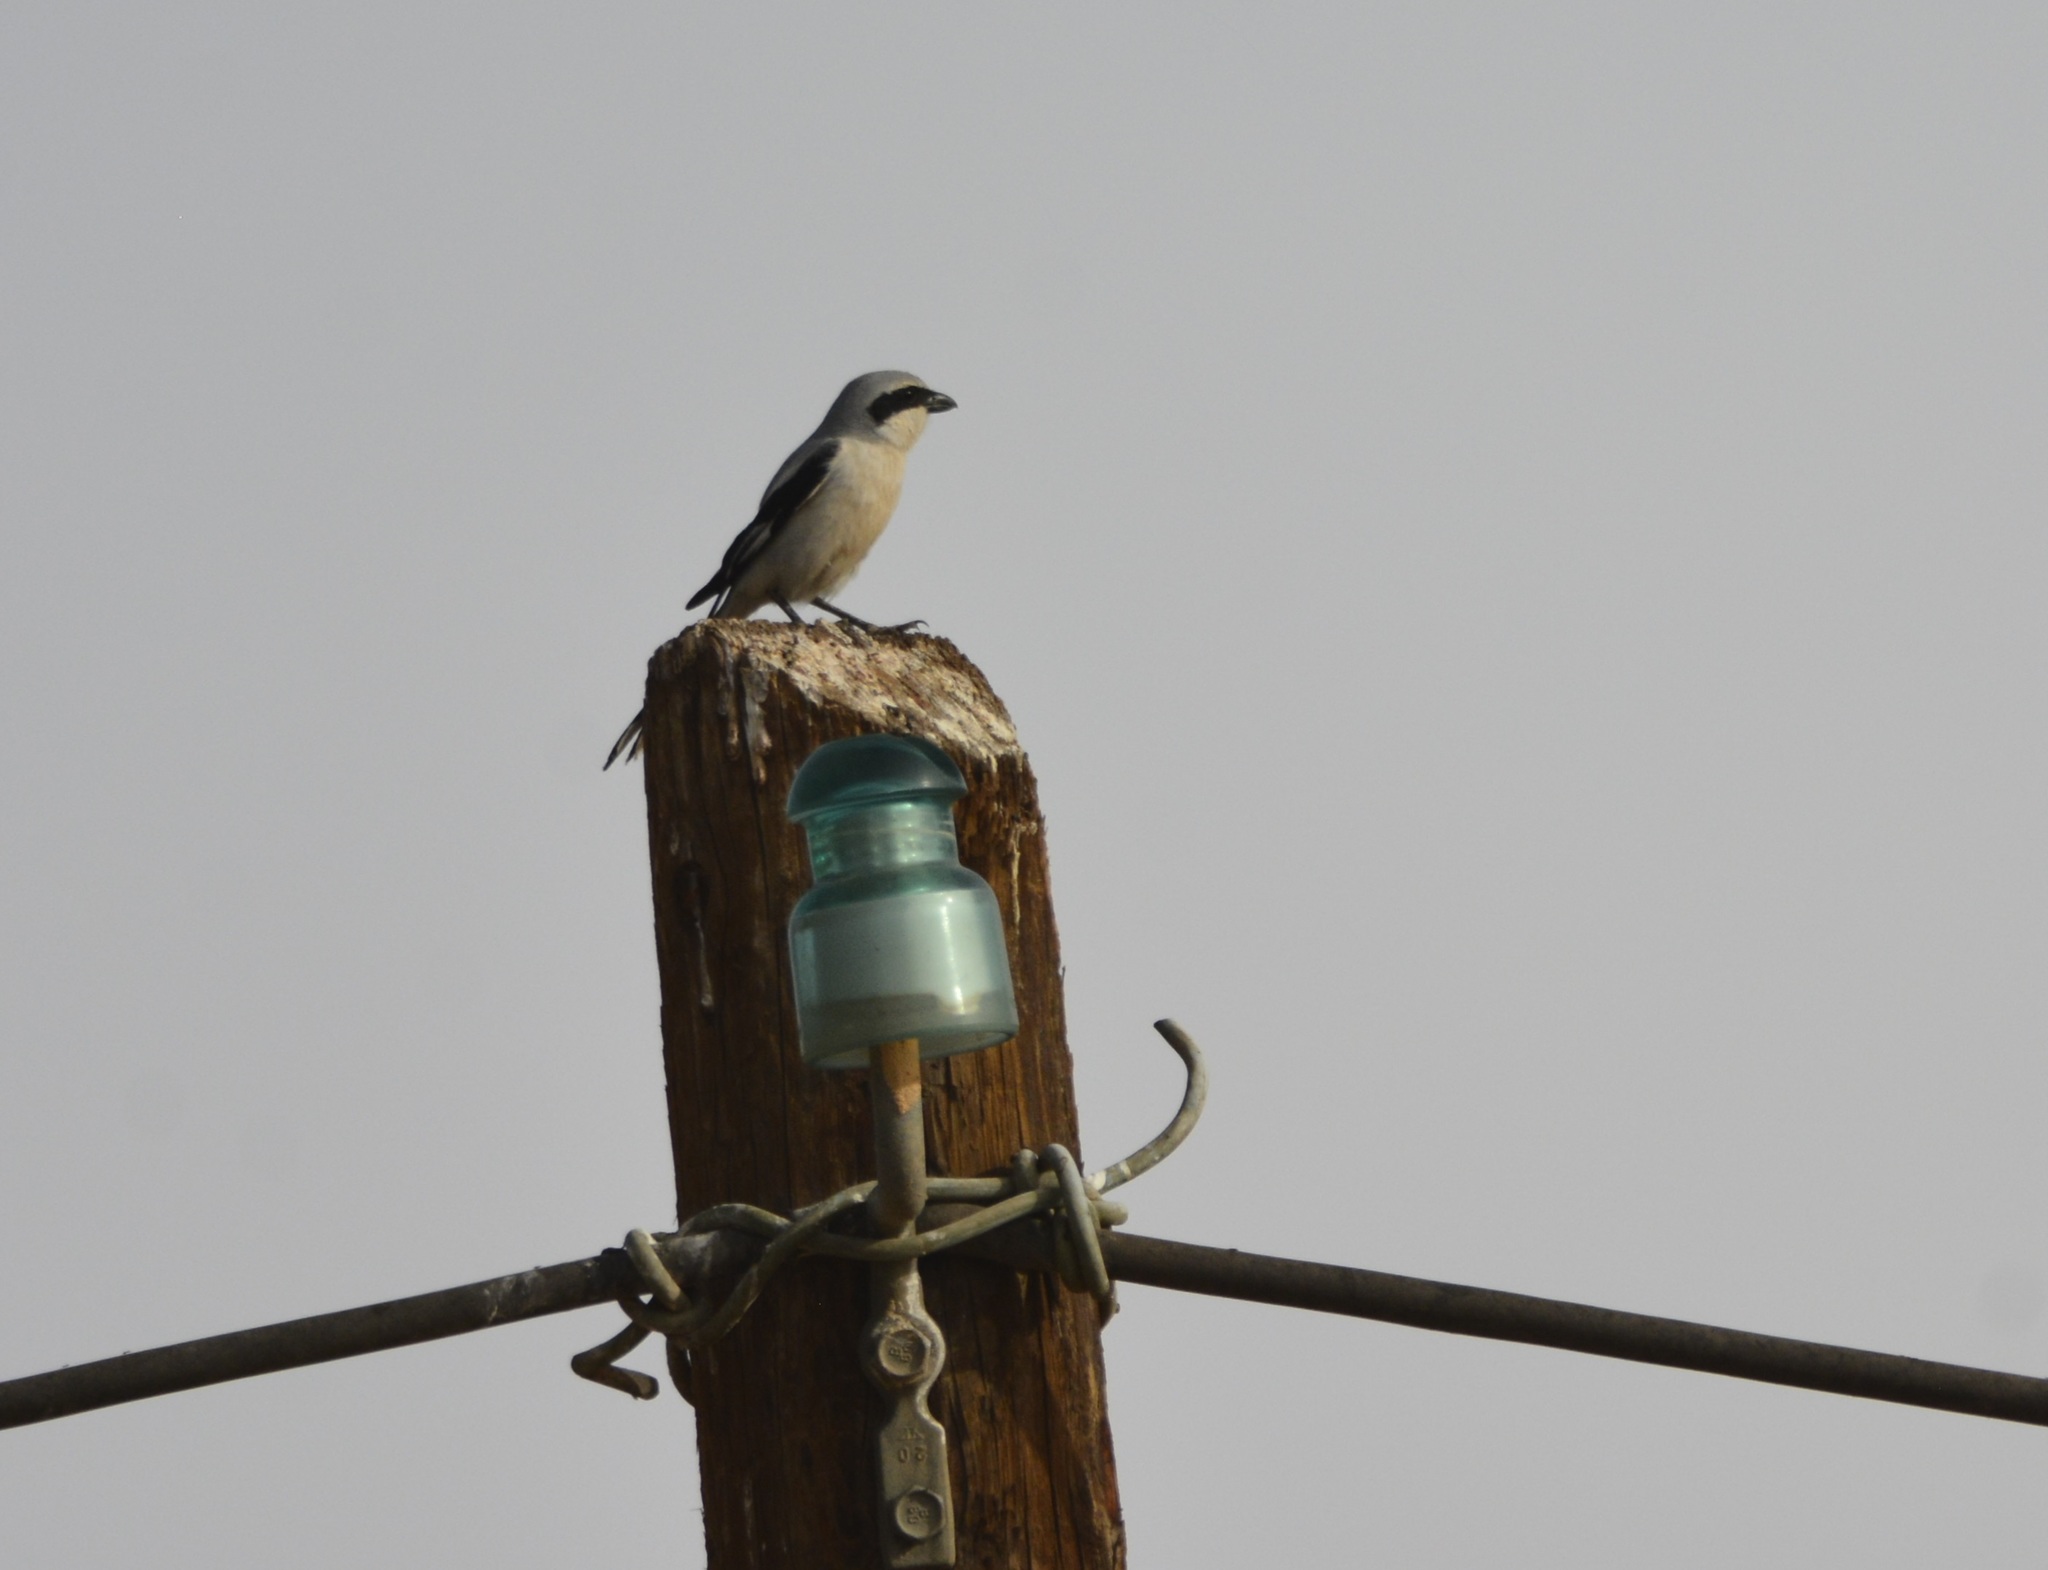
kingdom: Animalia
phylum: Chordata
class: Aves
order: Passeriformes
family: Laniidae
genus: Lanius
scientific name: Lanius excubitor
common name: Great grey shrike
